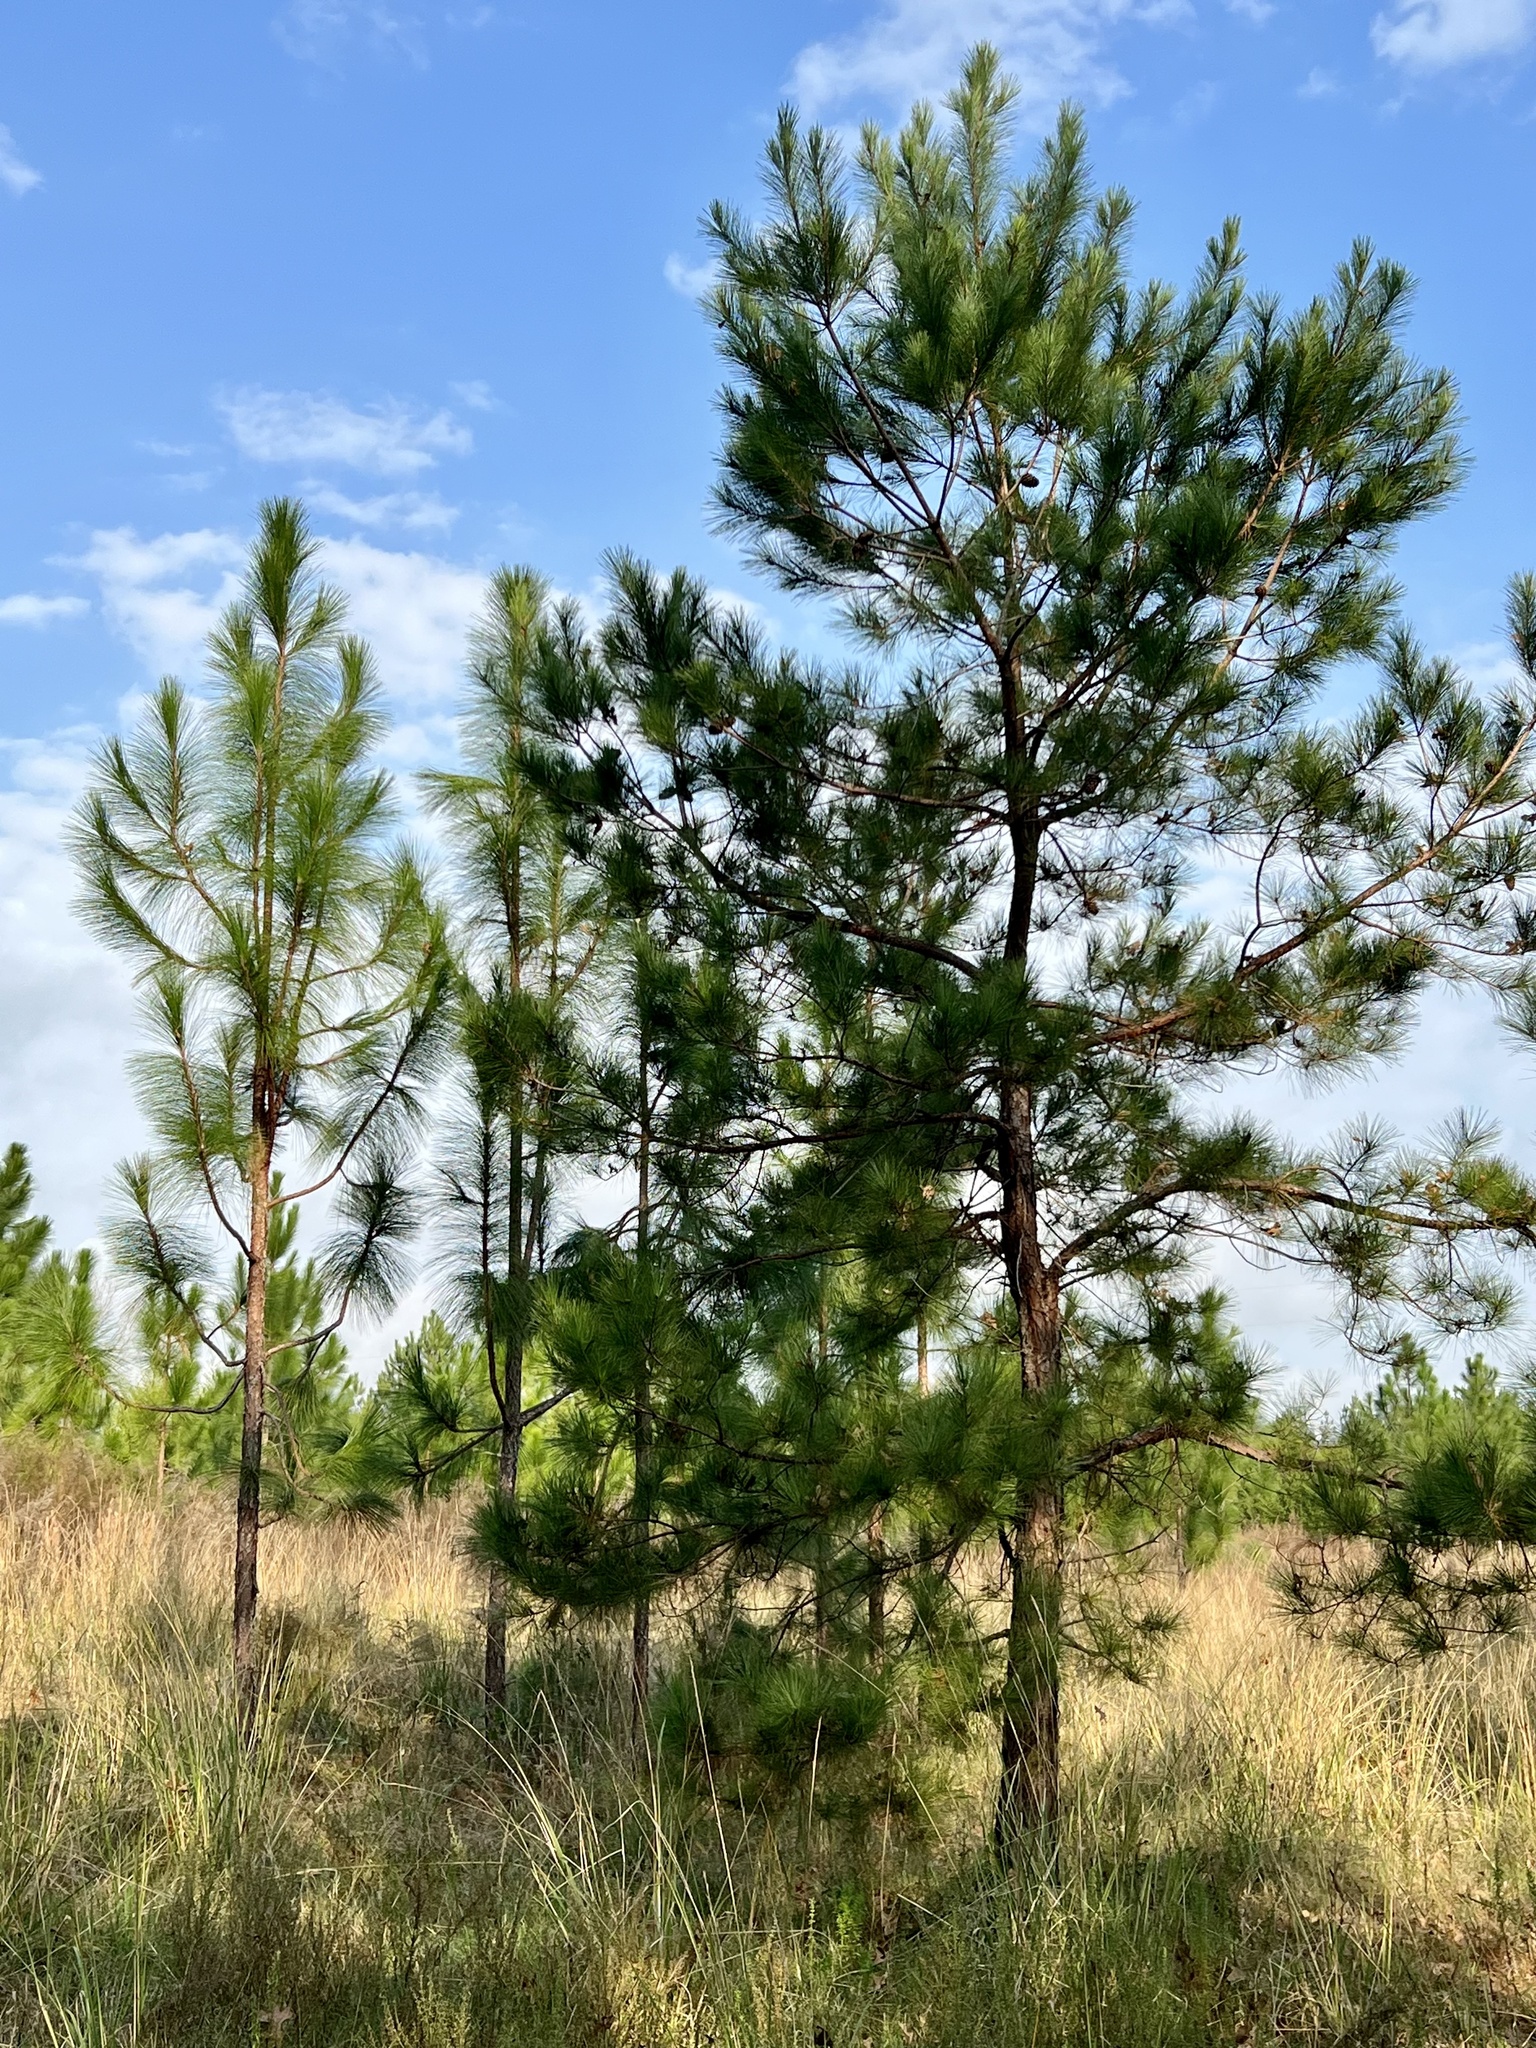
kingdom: Plantae
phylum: Tracheophyta
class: Pinopsida
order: Pinales
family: Pinaceae
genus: Pinus
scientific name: Pinus taeda
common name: Loblolly pine
